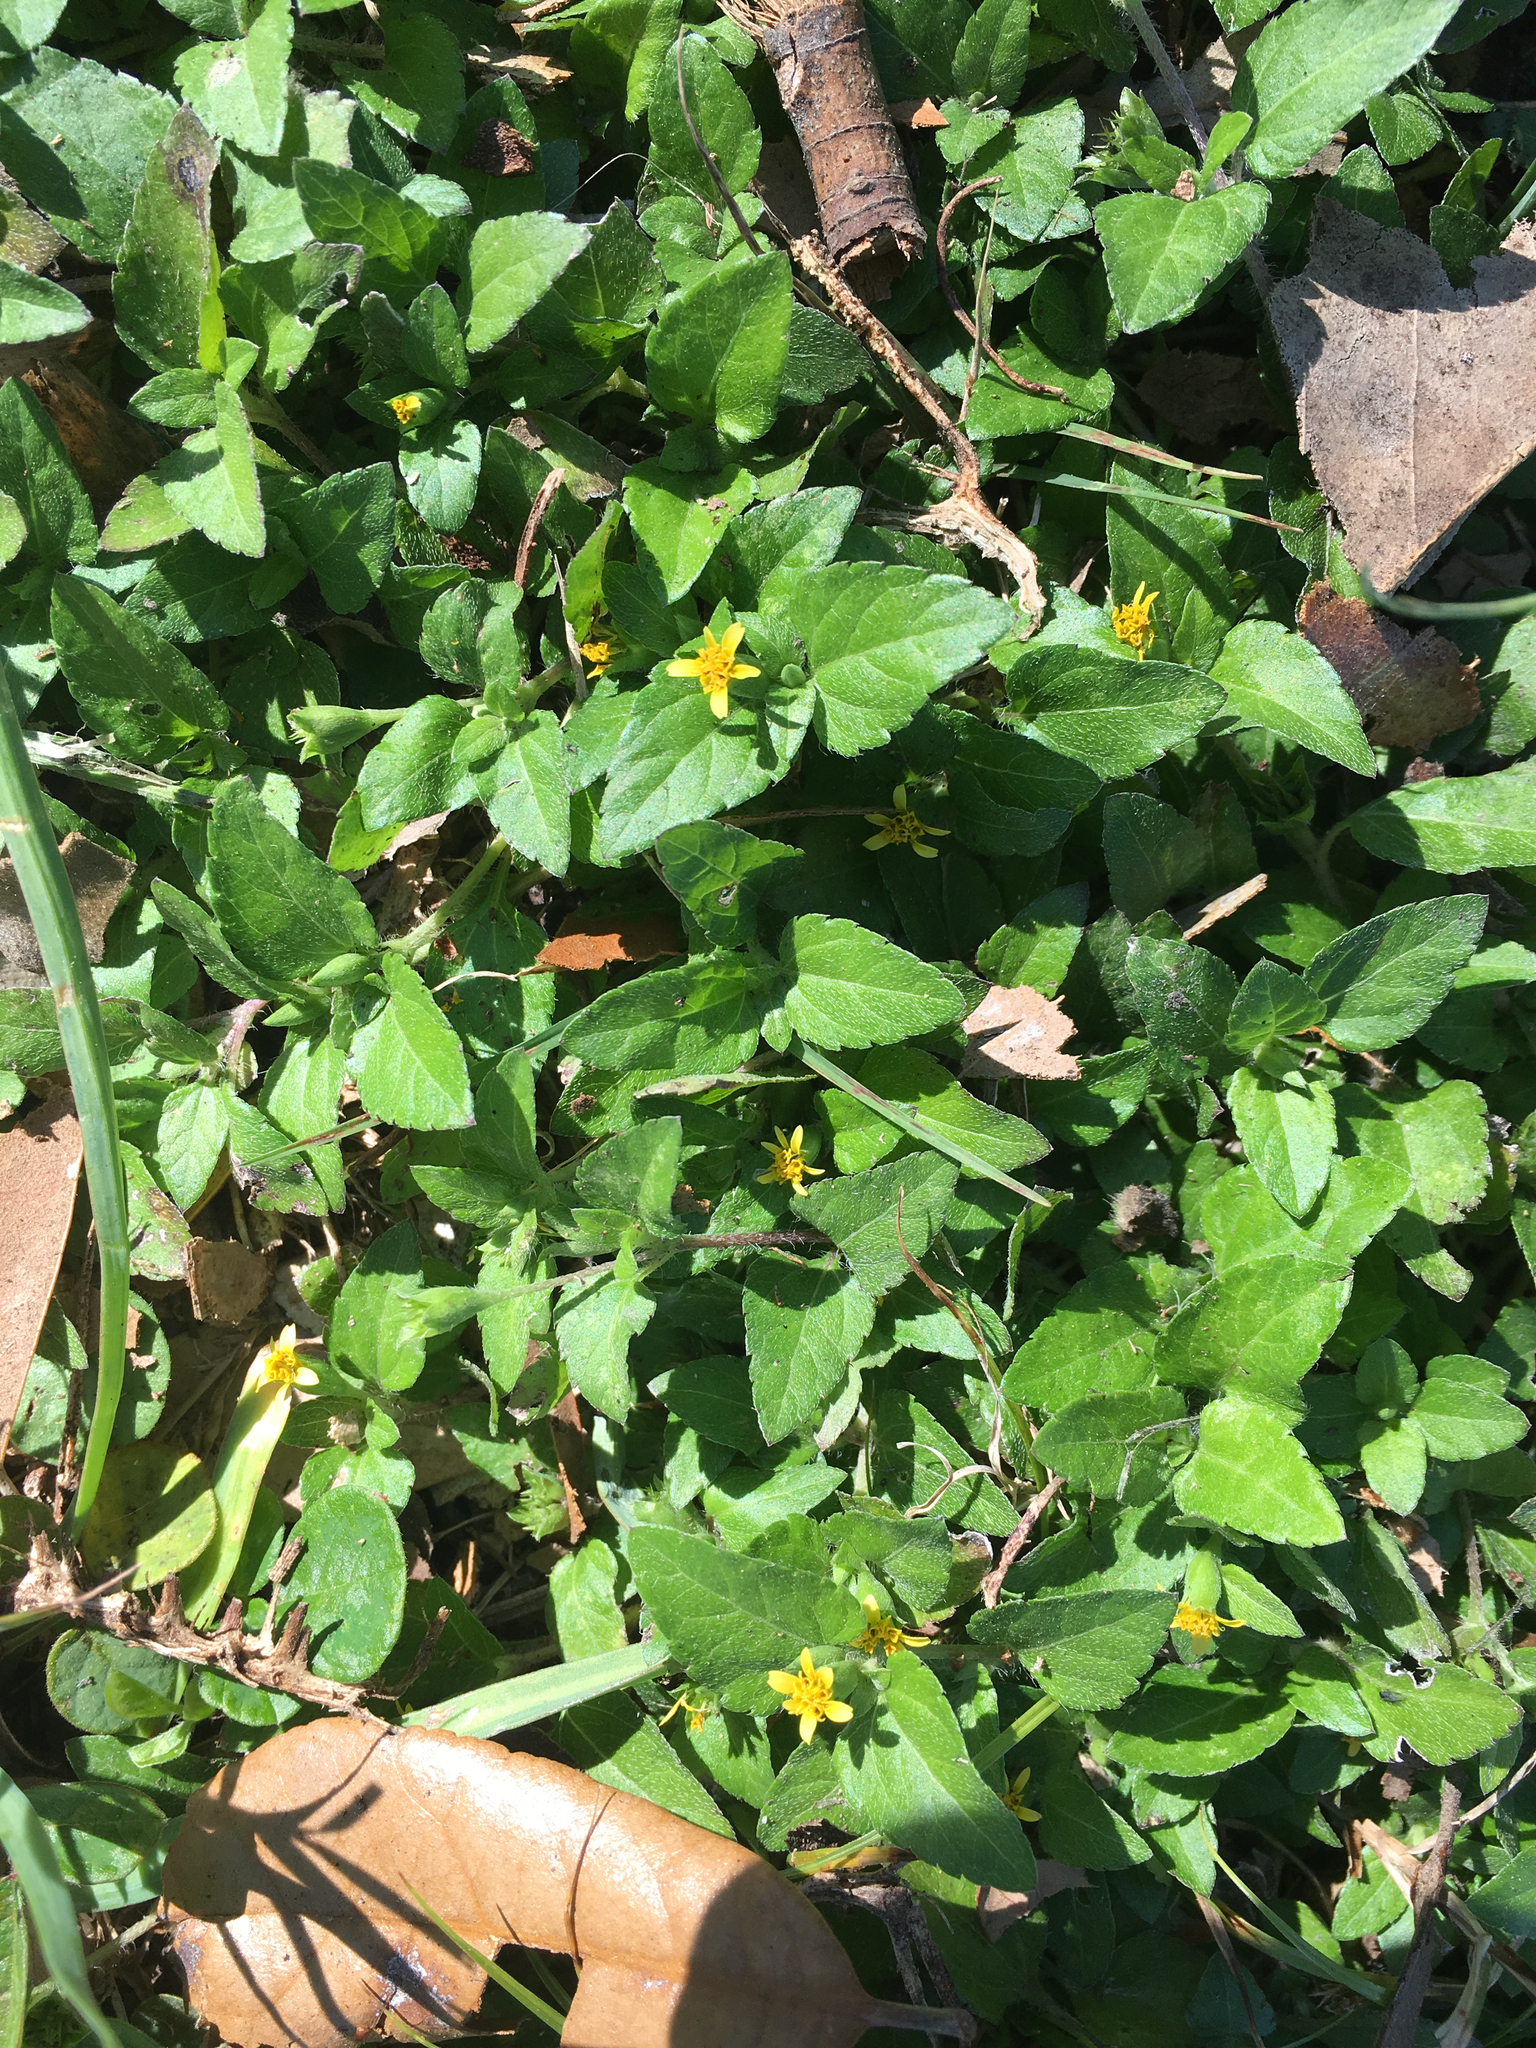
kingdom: Plantae
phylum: Tracheophyta
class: Magnoliopsida
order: Asterales
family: Asteraceae
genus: Calyptocarpus
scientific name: Calyptocarpus vialis
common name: Straggler daisy
